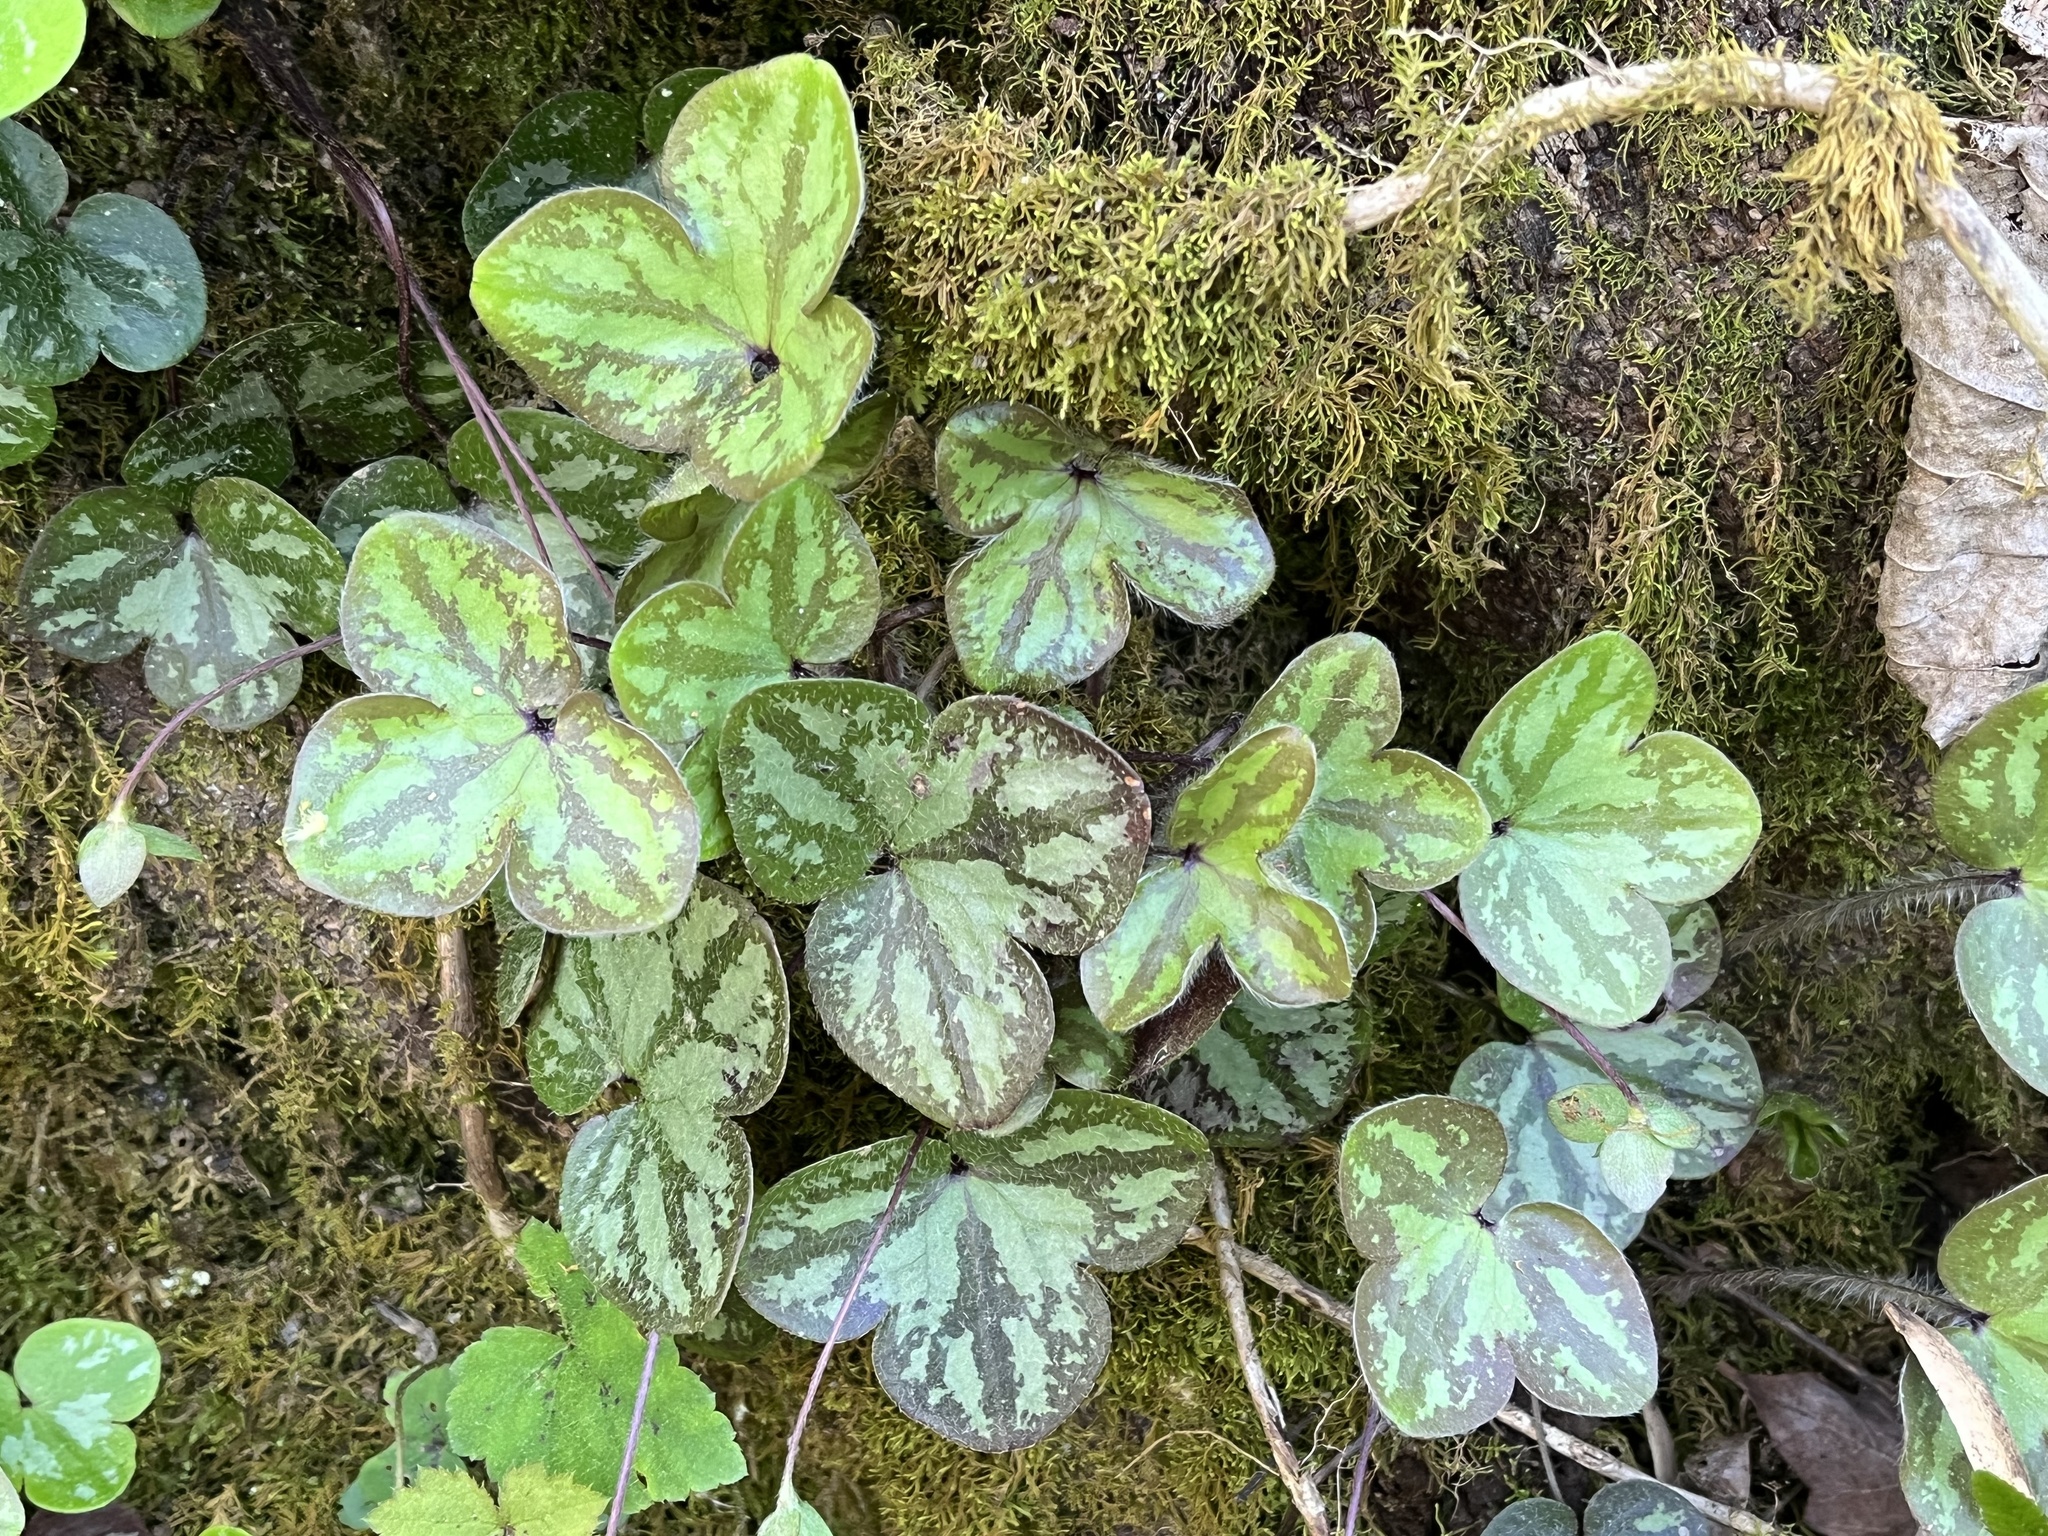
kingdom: Plantae
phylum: Tracheophyta
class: Magnoliopsida
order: Ranunculales
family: Ranunculaceae
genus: Hepatica
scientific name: Hepatica americana
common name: American hepatica
